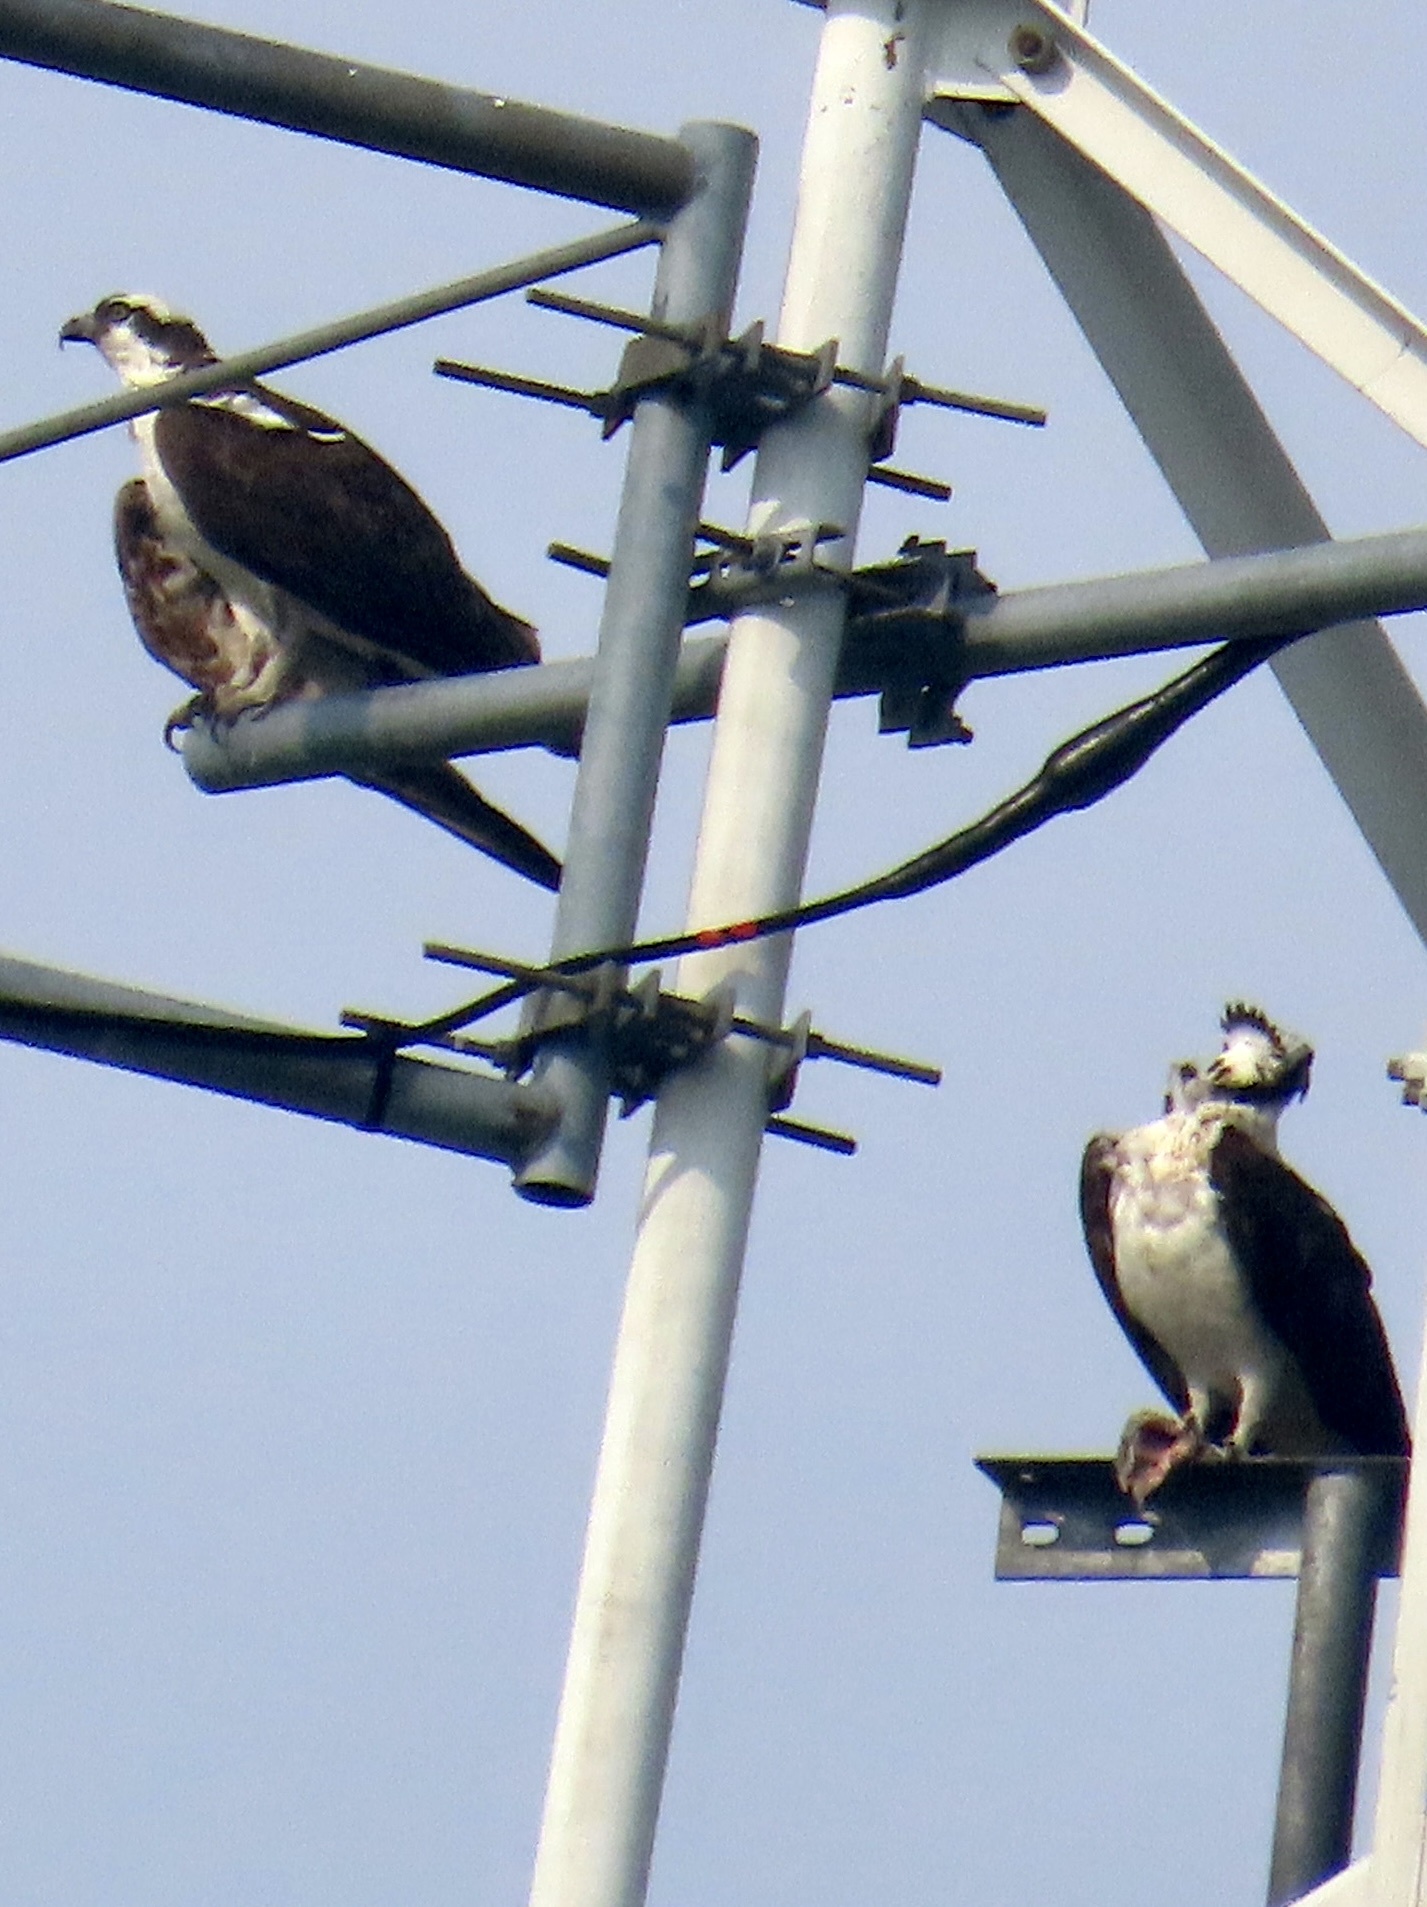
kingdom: Animalia
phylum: Chordata
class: Aves
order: Accipitriformes
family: Pandionidae
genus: Pandion
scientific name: Pandion haliaetus
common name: Osprey
